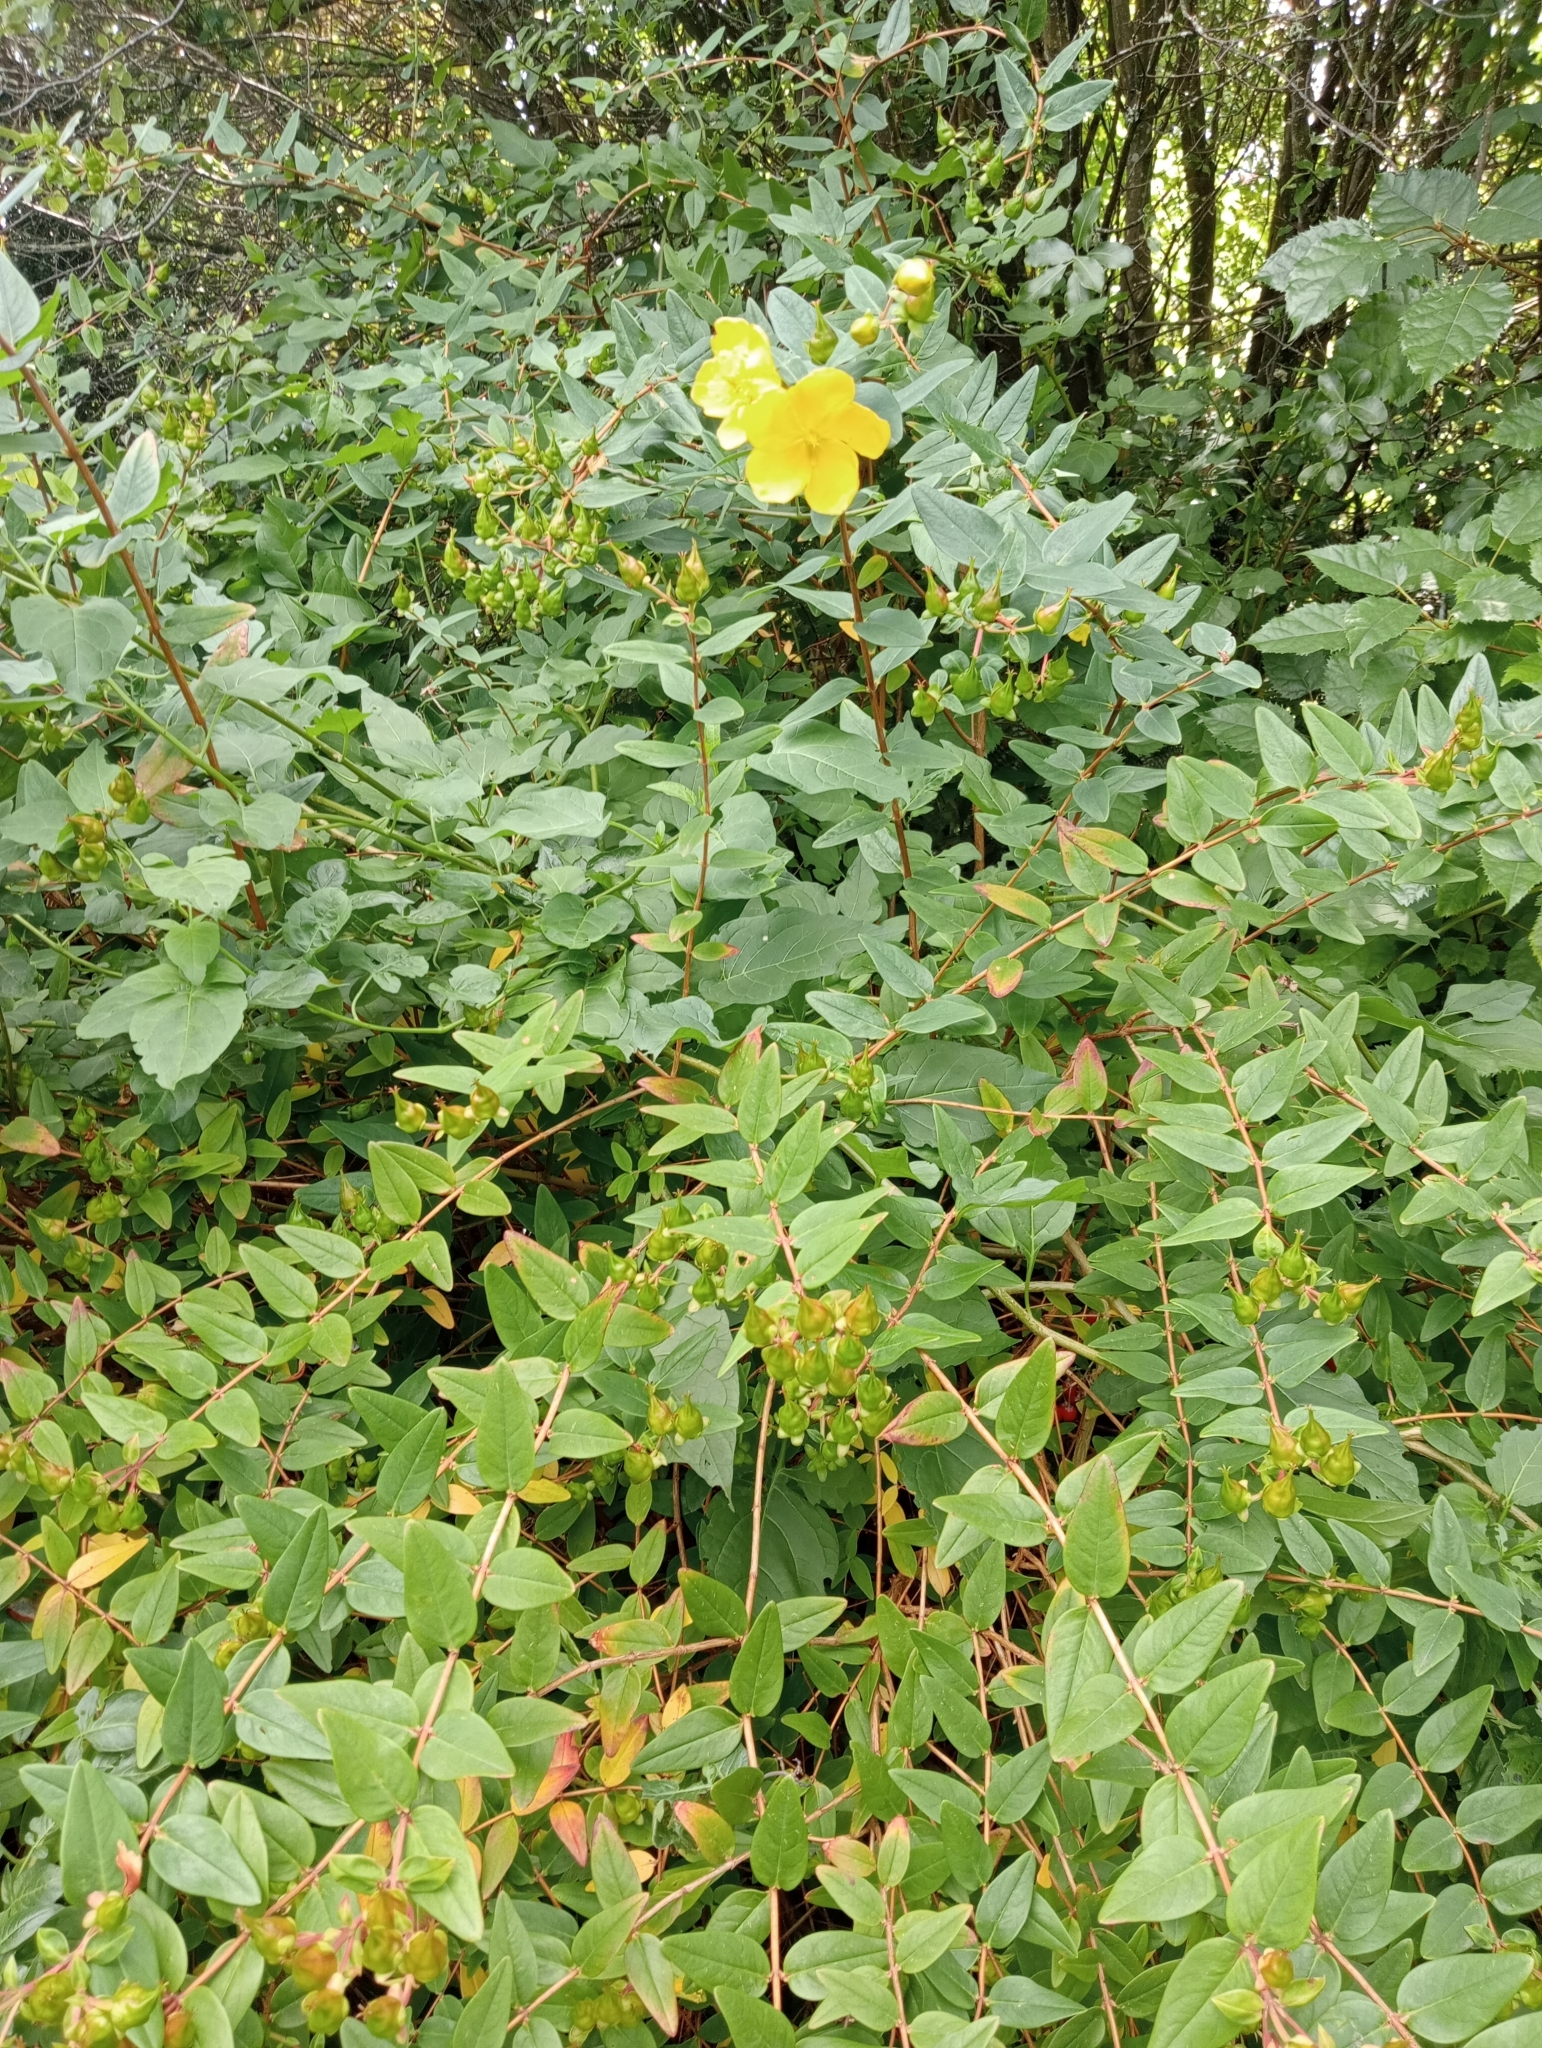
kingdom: Plantae
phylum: Tracheophyta
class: Magnoliopsida
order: Malpighiales
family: Hypericaceae
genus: Hypericum
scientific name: Hypericum calycinum
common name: Rose-of-sharon
